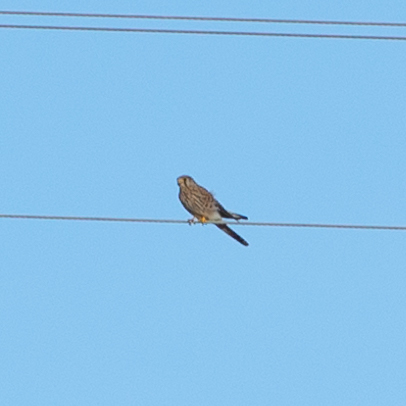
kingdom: Animalia
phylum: Chordata
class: Aves
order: Falconiformes
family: Falconidae
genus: Falco
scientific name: Falco tinnunculus
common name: Common kestrel
